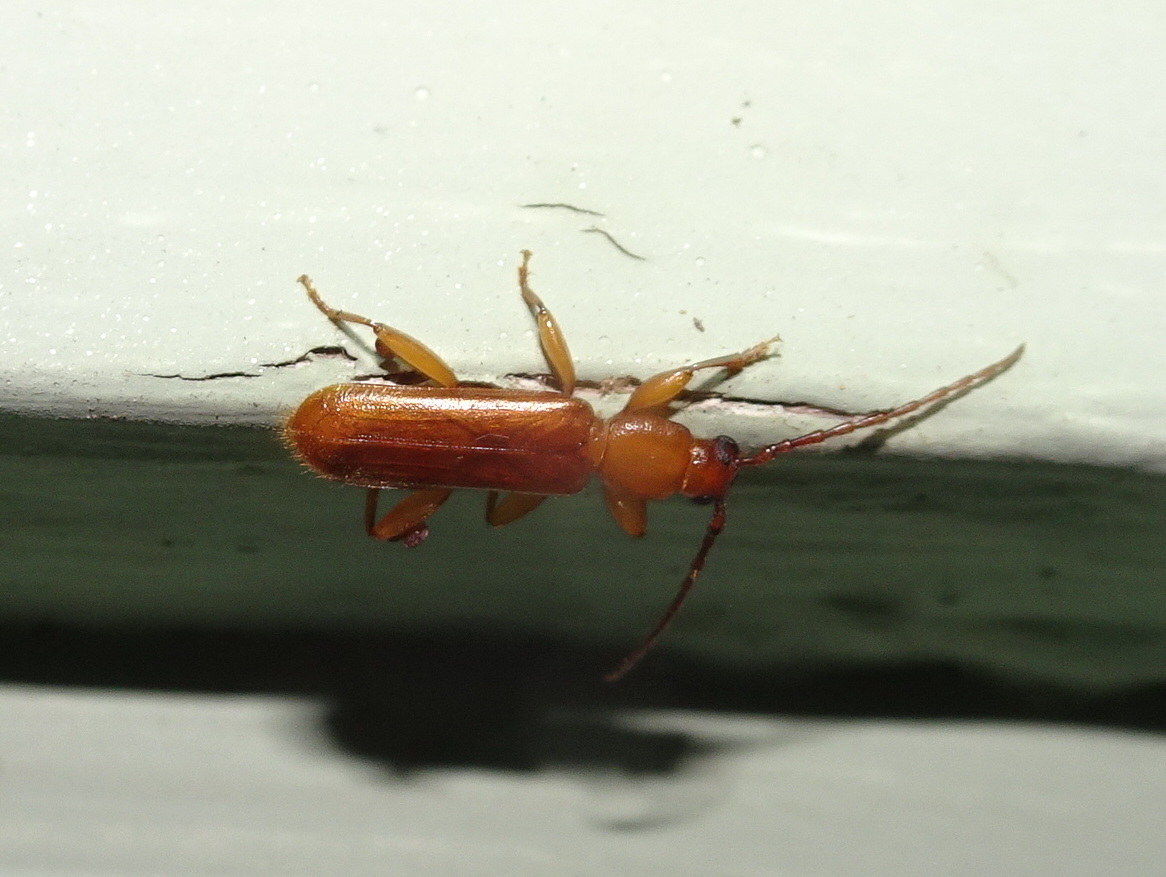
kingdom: Animalia
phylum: Arthropoda
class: Insecta
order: Coleoptera
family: Cerambycidae
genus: Smodicum
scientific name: Smodicum cucujiforme
